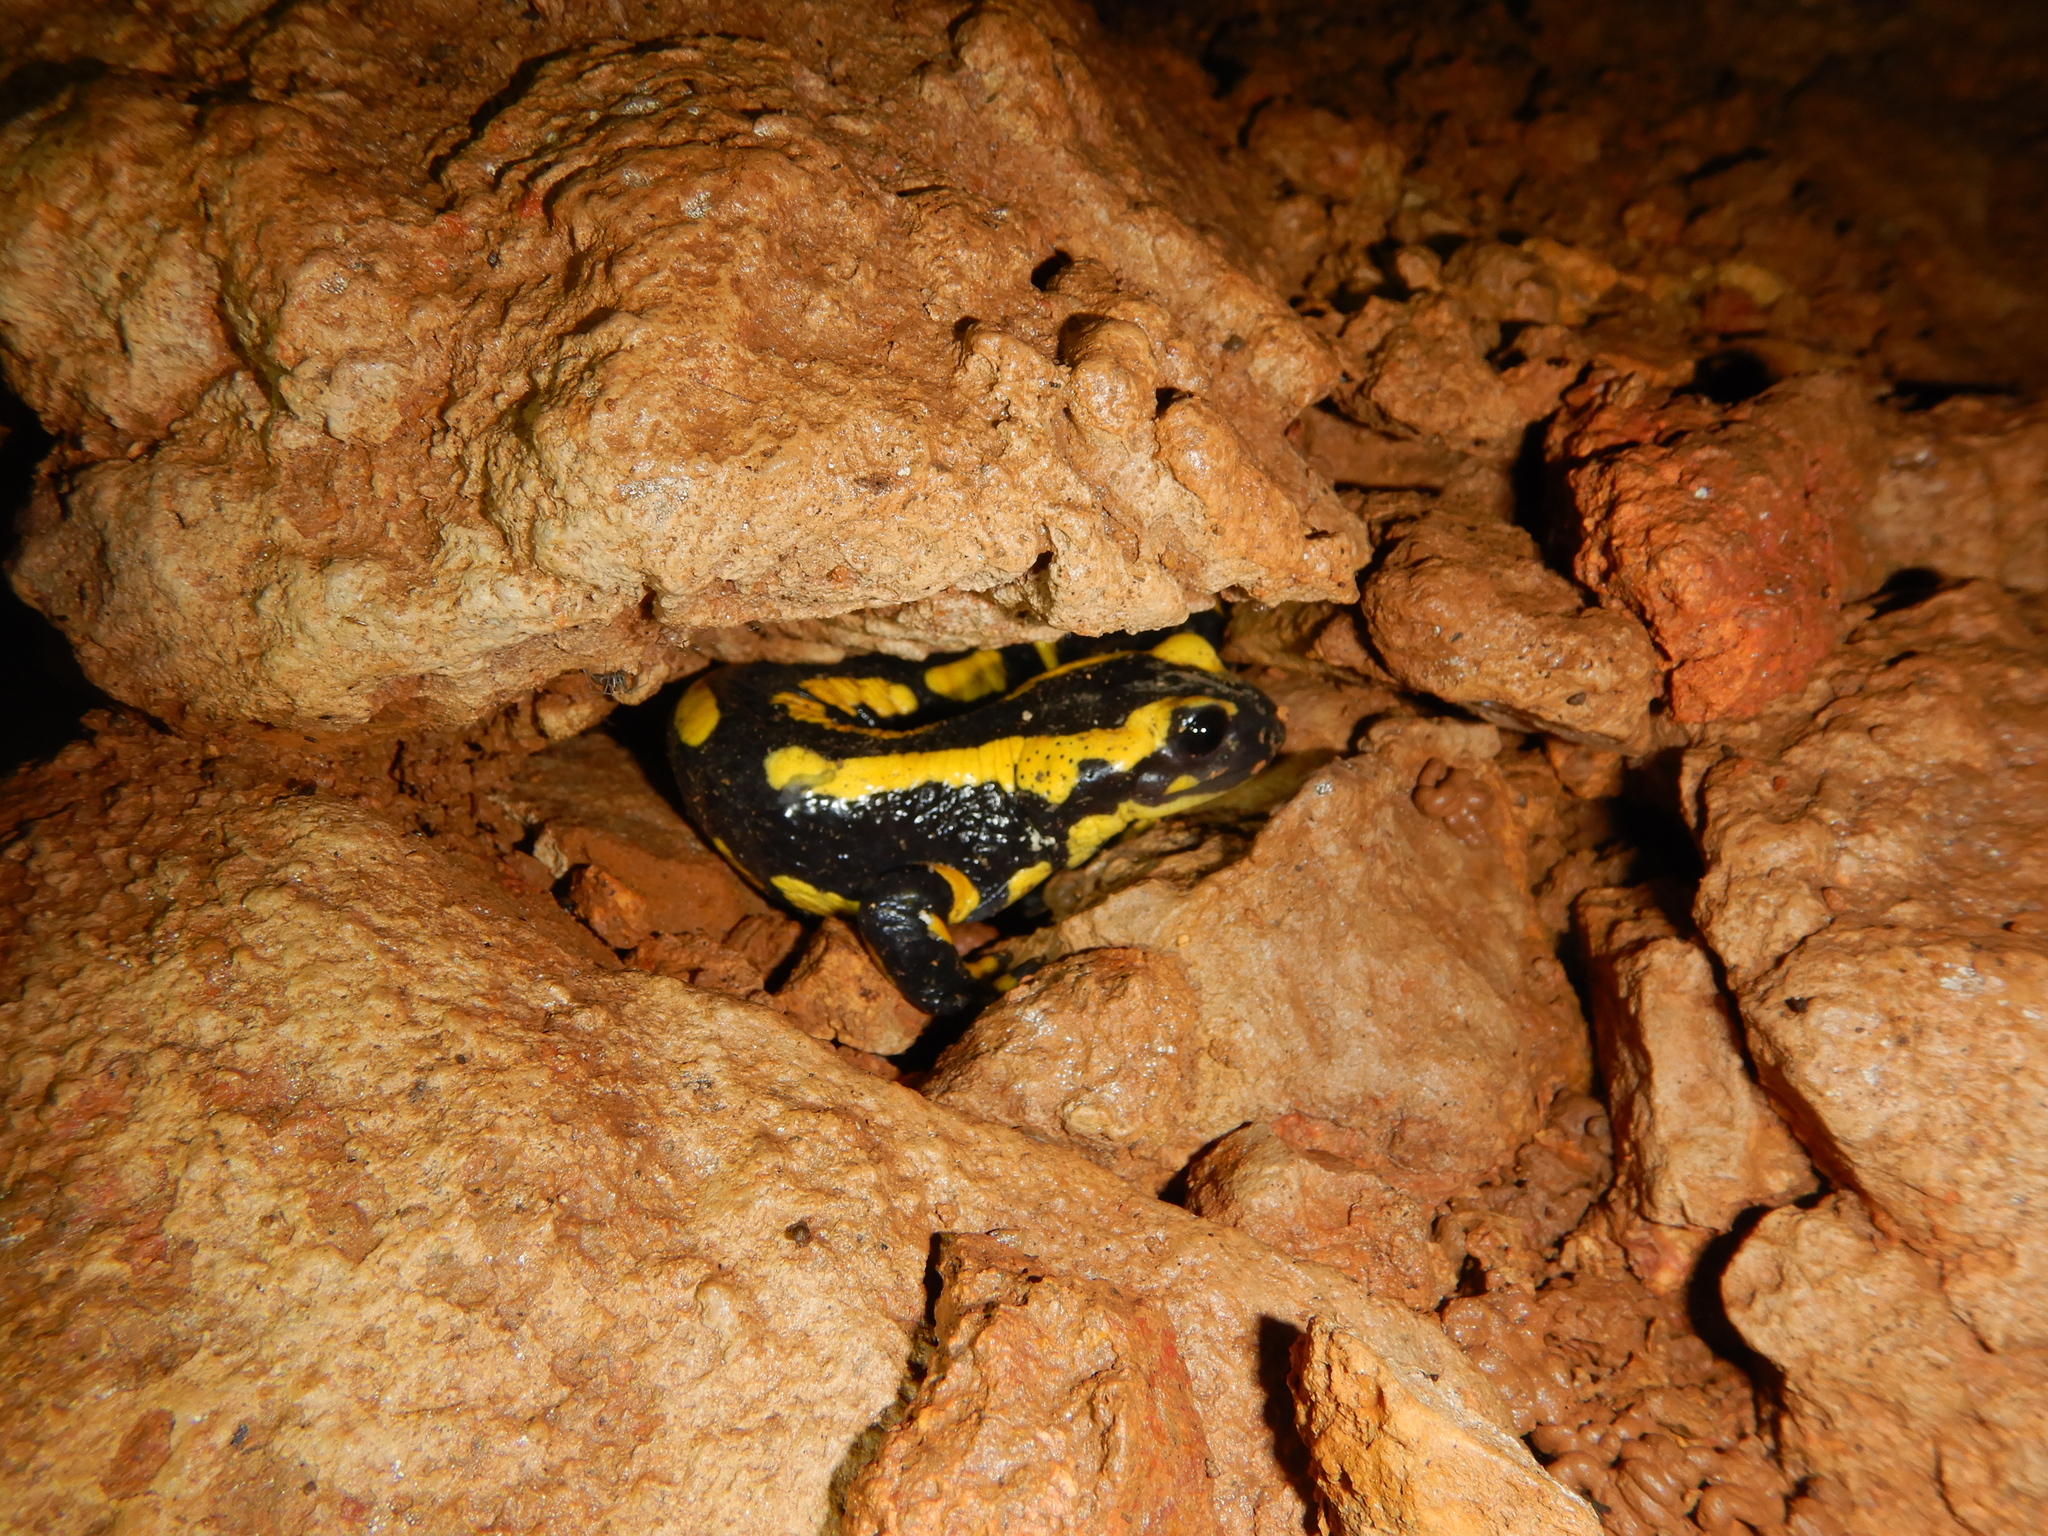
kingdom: Animalia
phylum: Chordata
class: Amphibia
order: Caudata
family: Salamandridae
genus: Salamandra
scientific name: Salamandra salamandra
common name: Fire salamander
